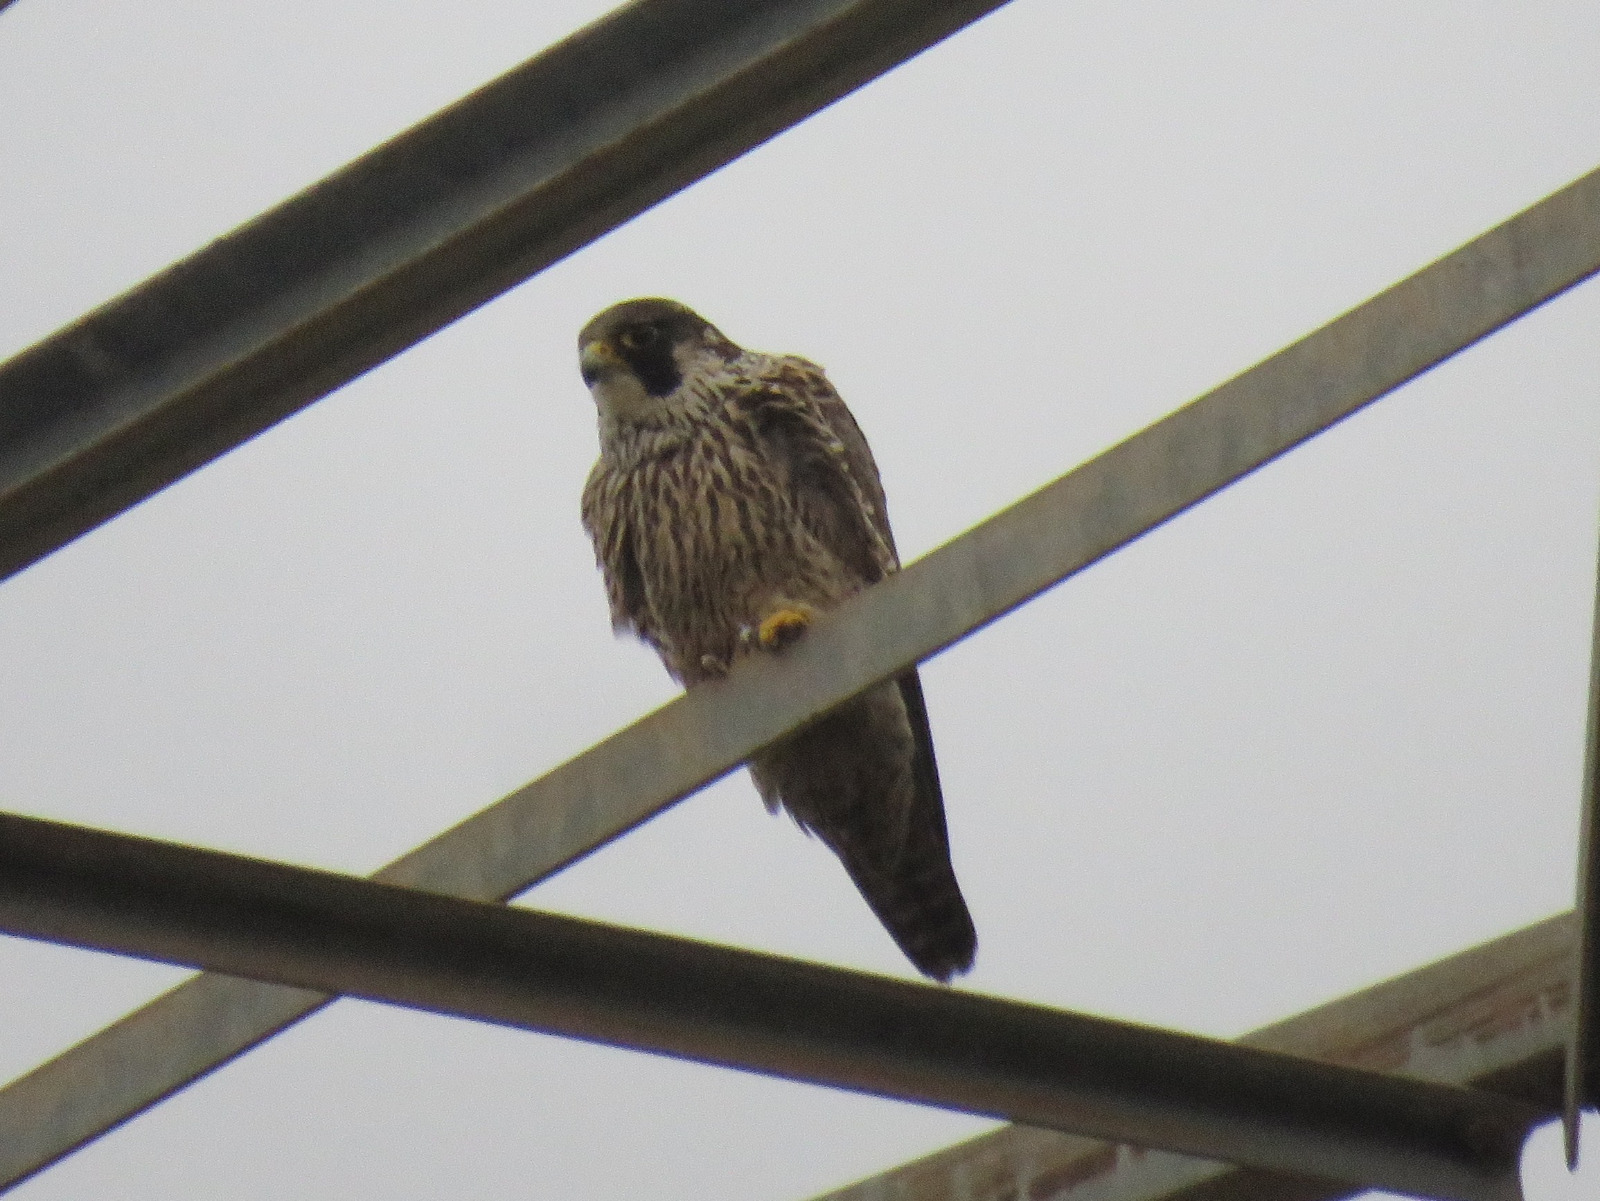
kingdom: Animalia
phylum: Chordata
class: Aves
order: Falconiformes
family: Falconidae
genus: Falco
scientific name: Falco peregrinus
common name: Peregrine falcon
